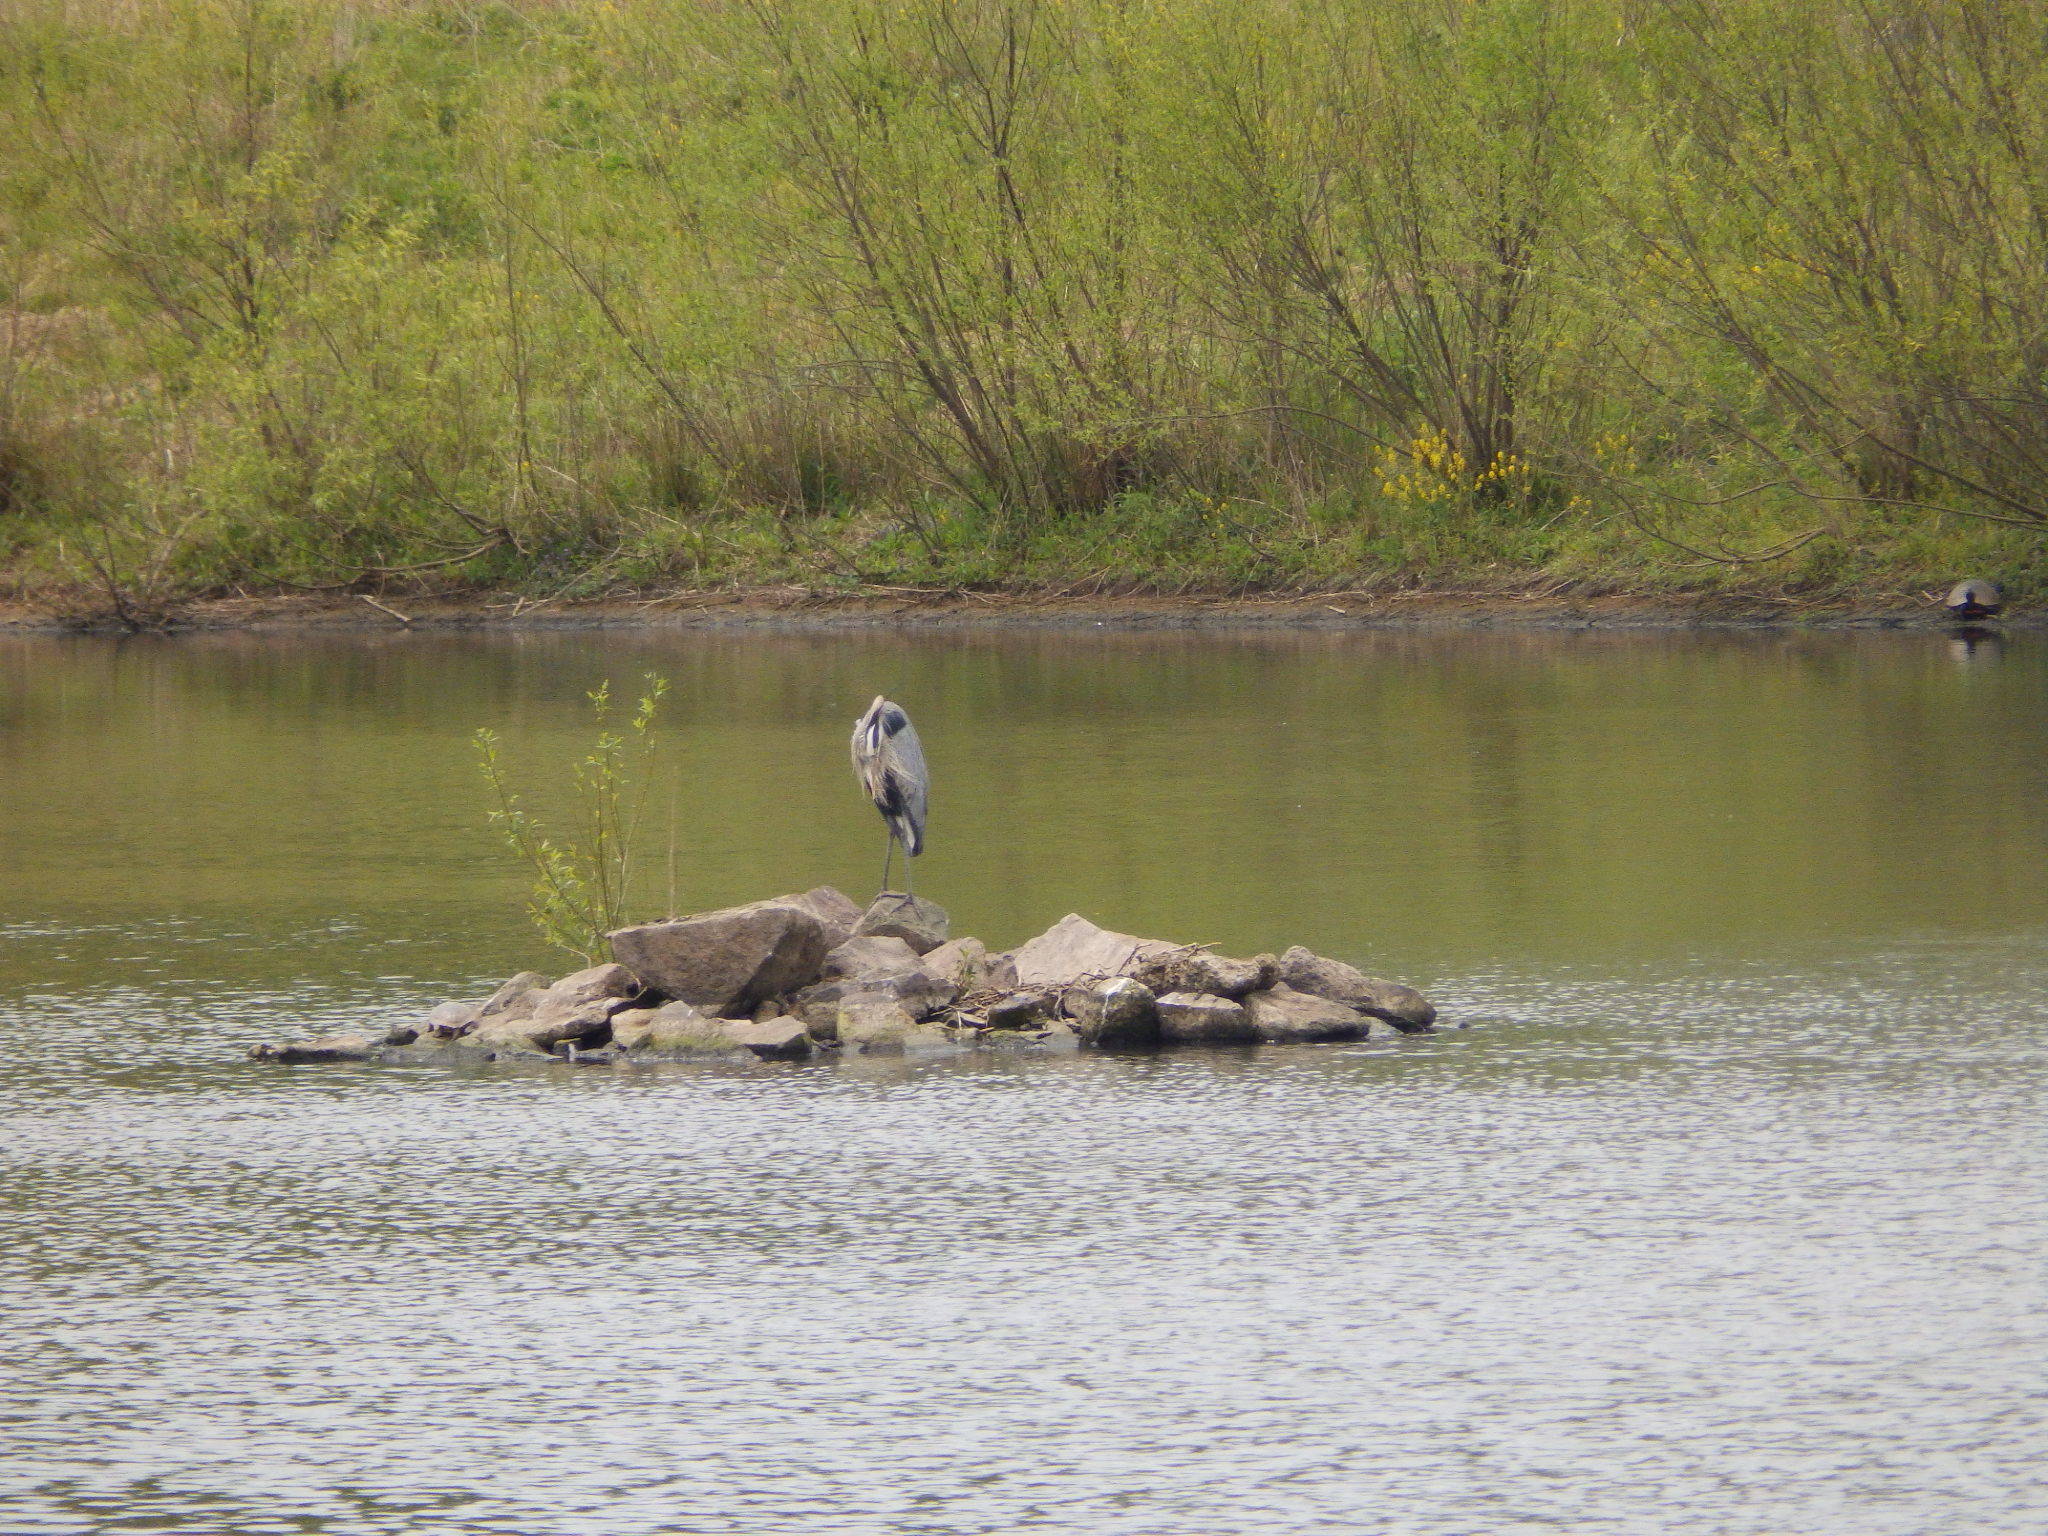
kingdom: Animalia
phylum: Chordata
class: Aves
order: Pelecaniformes
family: Ardeidae
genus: Ardea
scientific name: Ardea herodias
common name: Great blue heron
